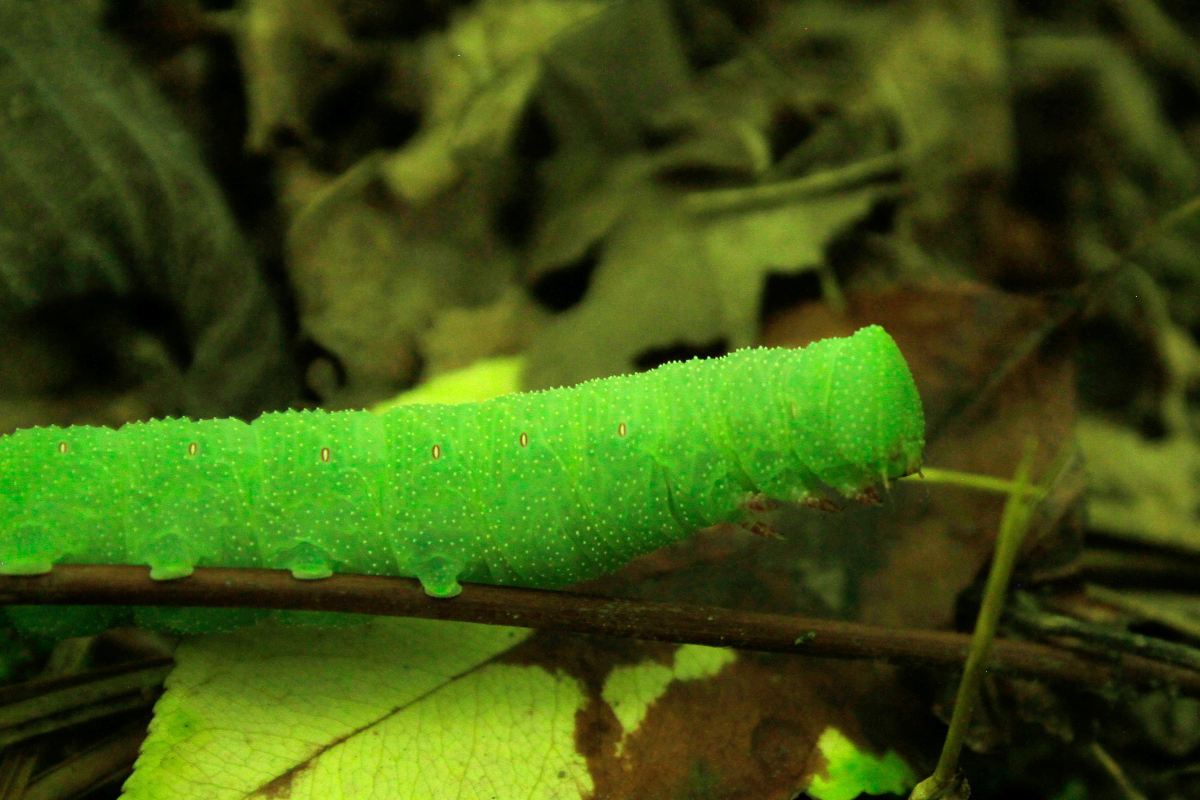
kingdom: Animalia
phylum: Arthropoda
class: Insecta
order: Lepidoptera
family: Sphingidae
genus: Paonias
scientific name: Paonias myops
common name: Small-eyed sphinx
